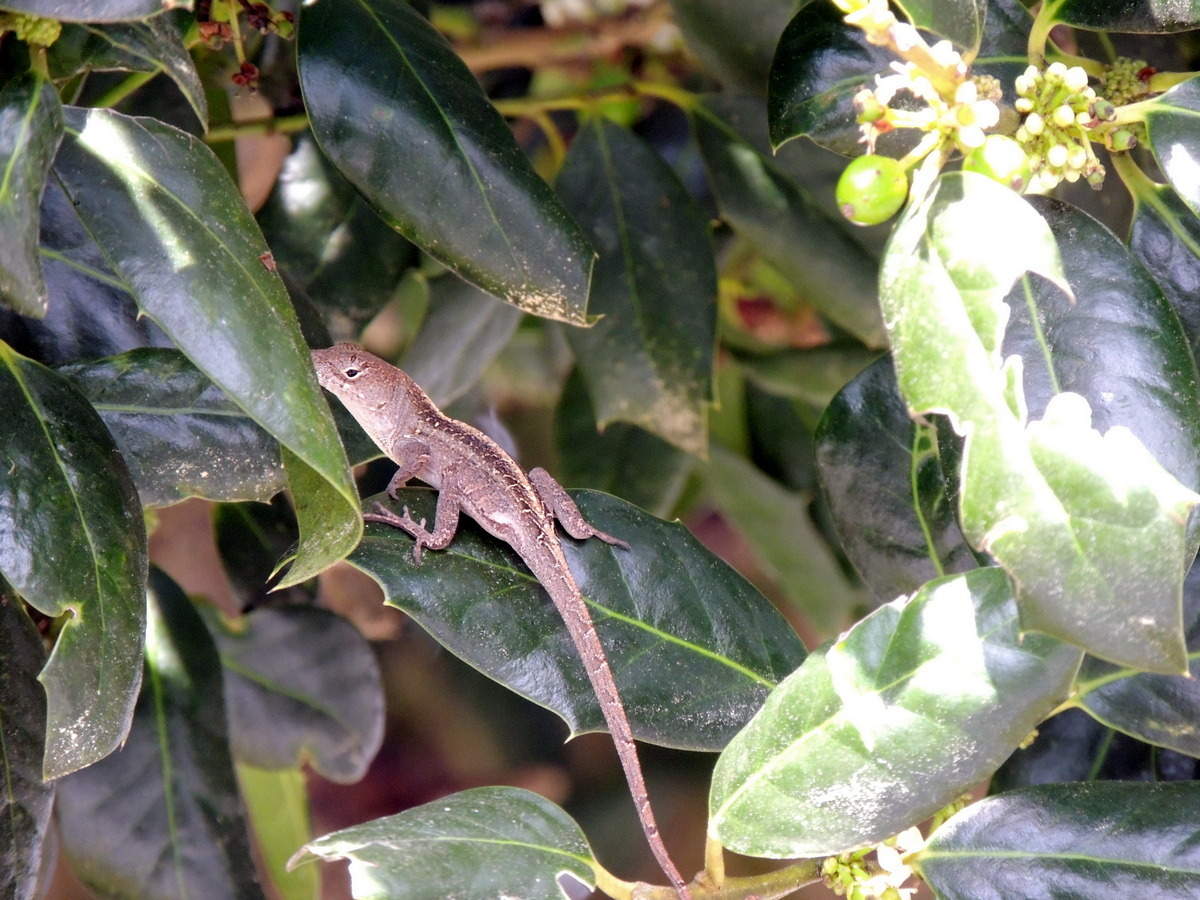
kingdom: Animalia
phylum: Chordata
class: Squamata
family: Dactyloidae
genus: Anolis
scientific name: Anolis sagrei
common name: Brown anole
